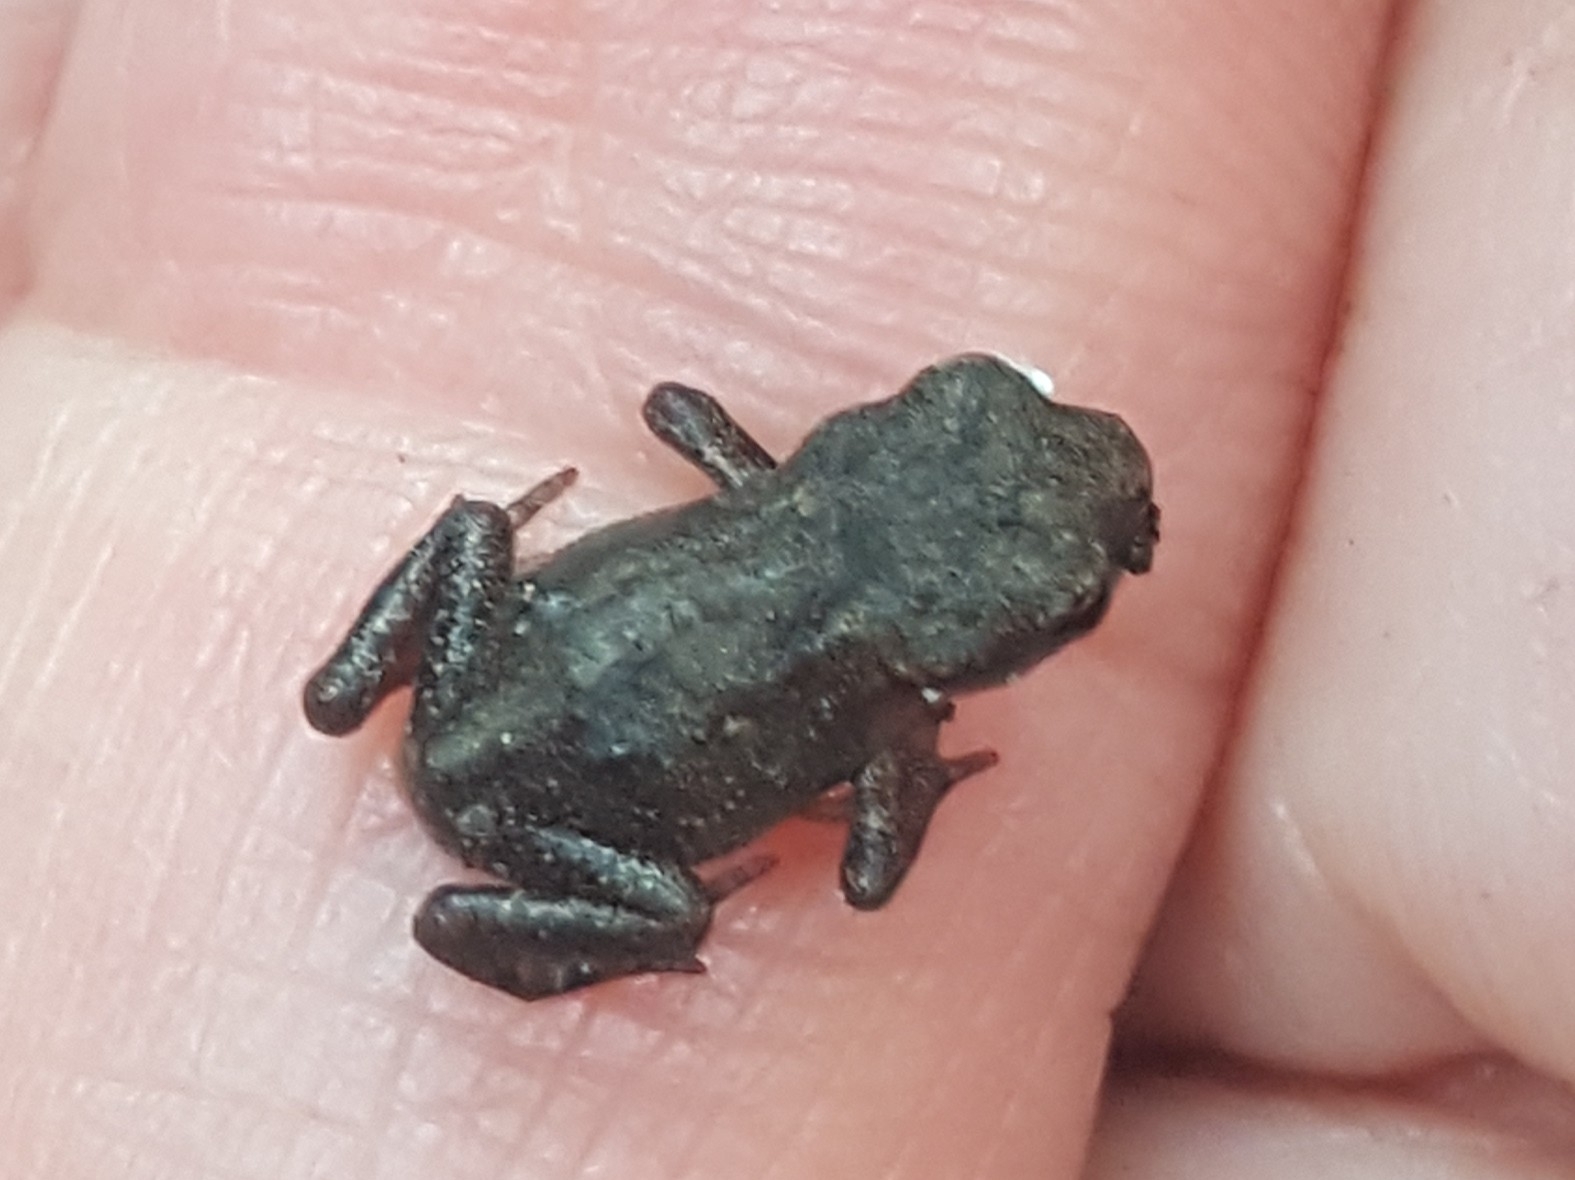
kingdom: Animalia
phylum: Chordata
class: Amphibia
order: Anura
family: Bufonidae
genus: Bufo
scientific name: Bufo bufo
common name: Common toad
